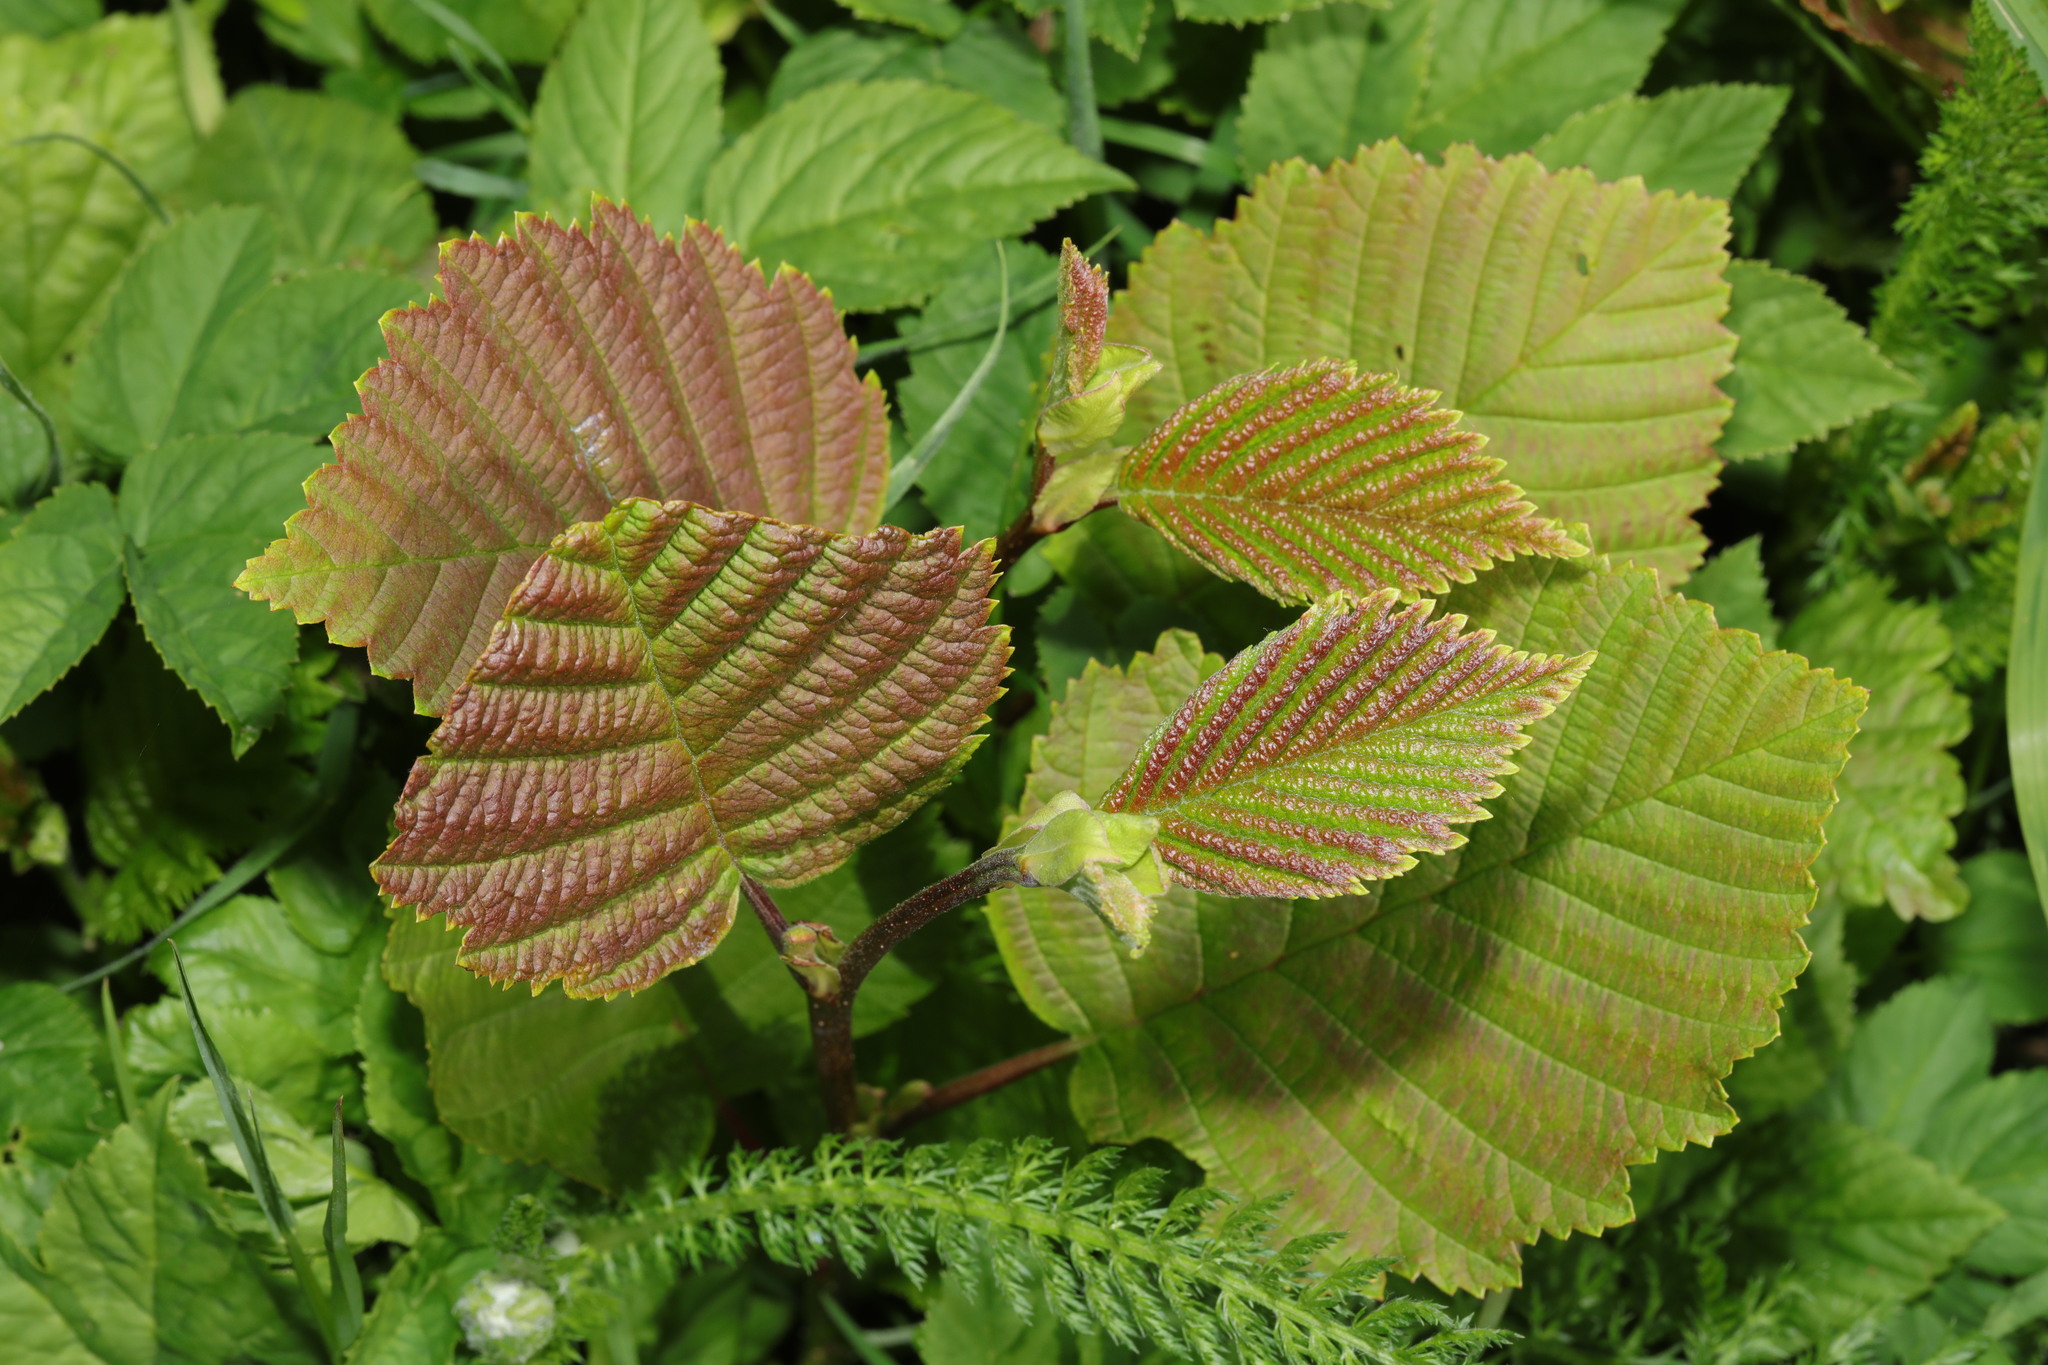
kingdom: Plantae
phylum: Tracheophyta
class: Magnoliopsida
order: Fagales
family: Betulaceae
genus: Alnus
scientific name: Alnus incana
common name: Grey alder
